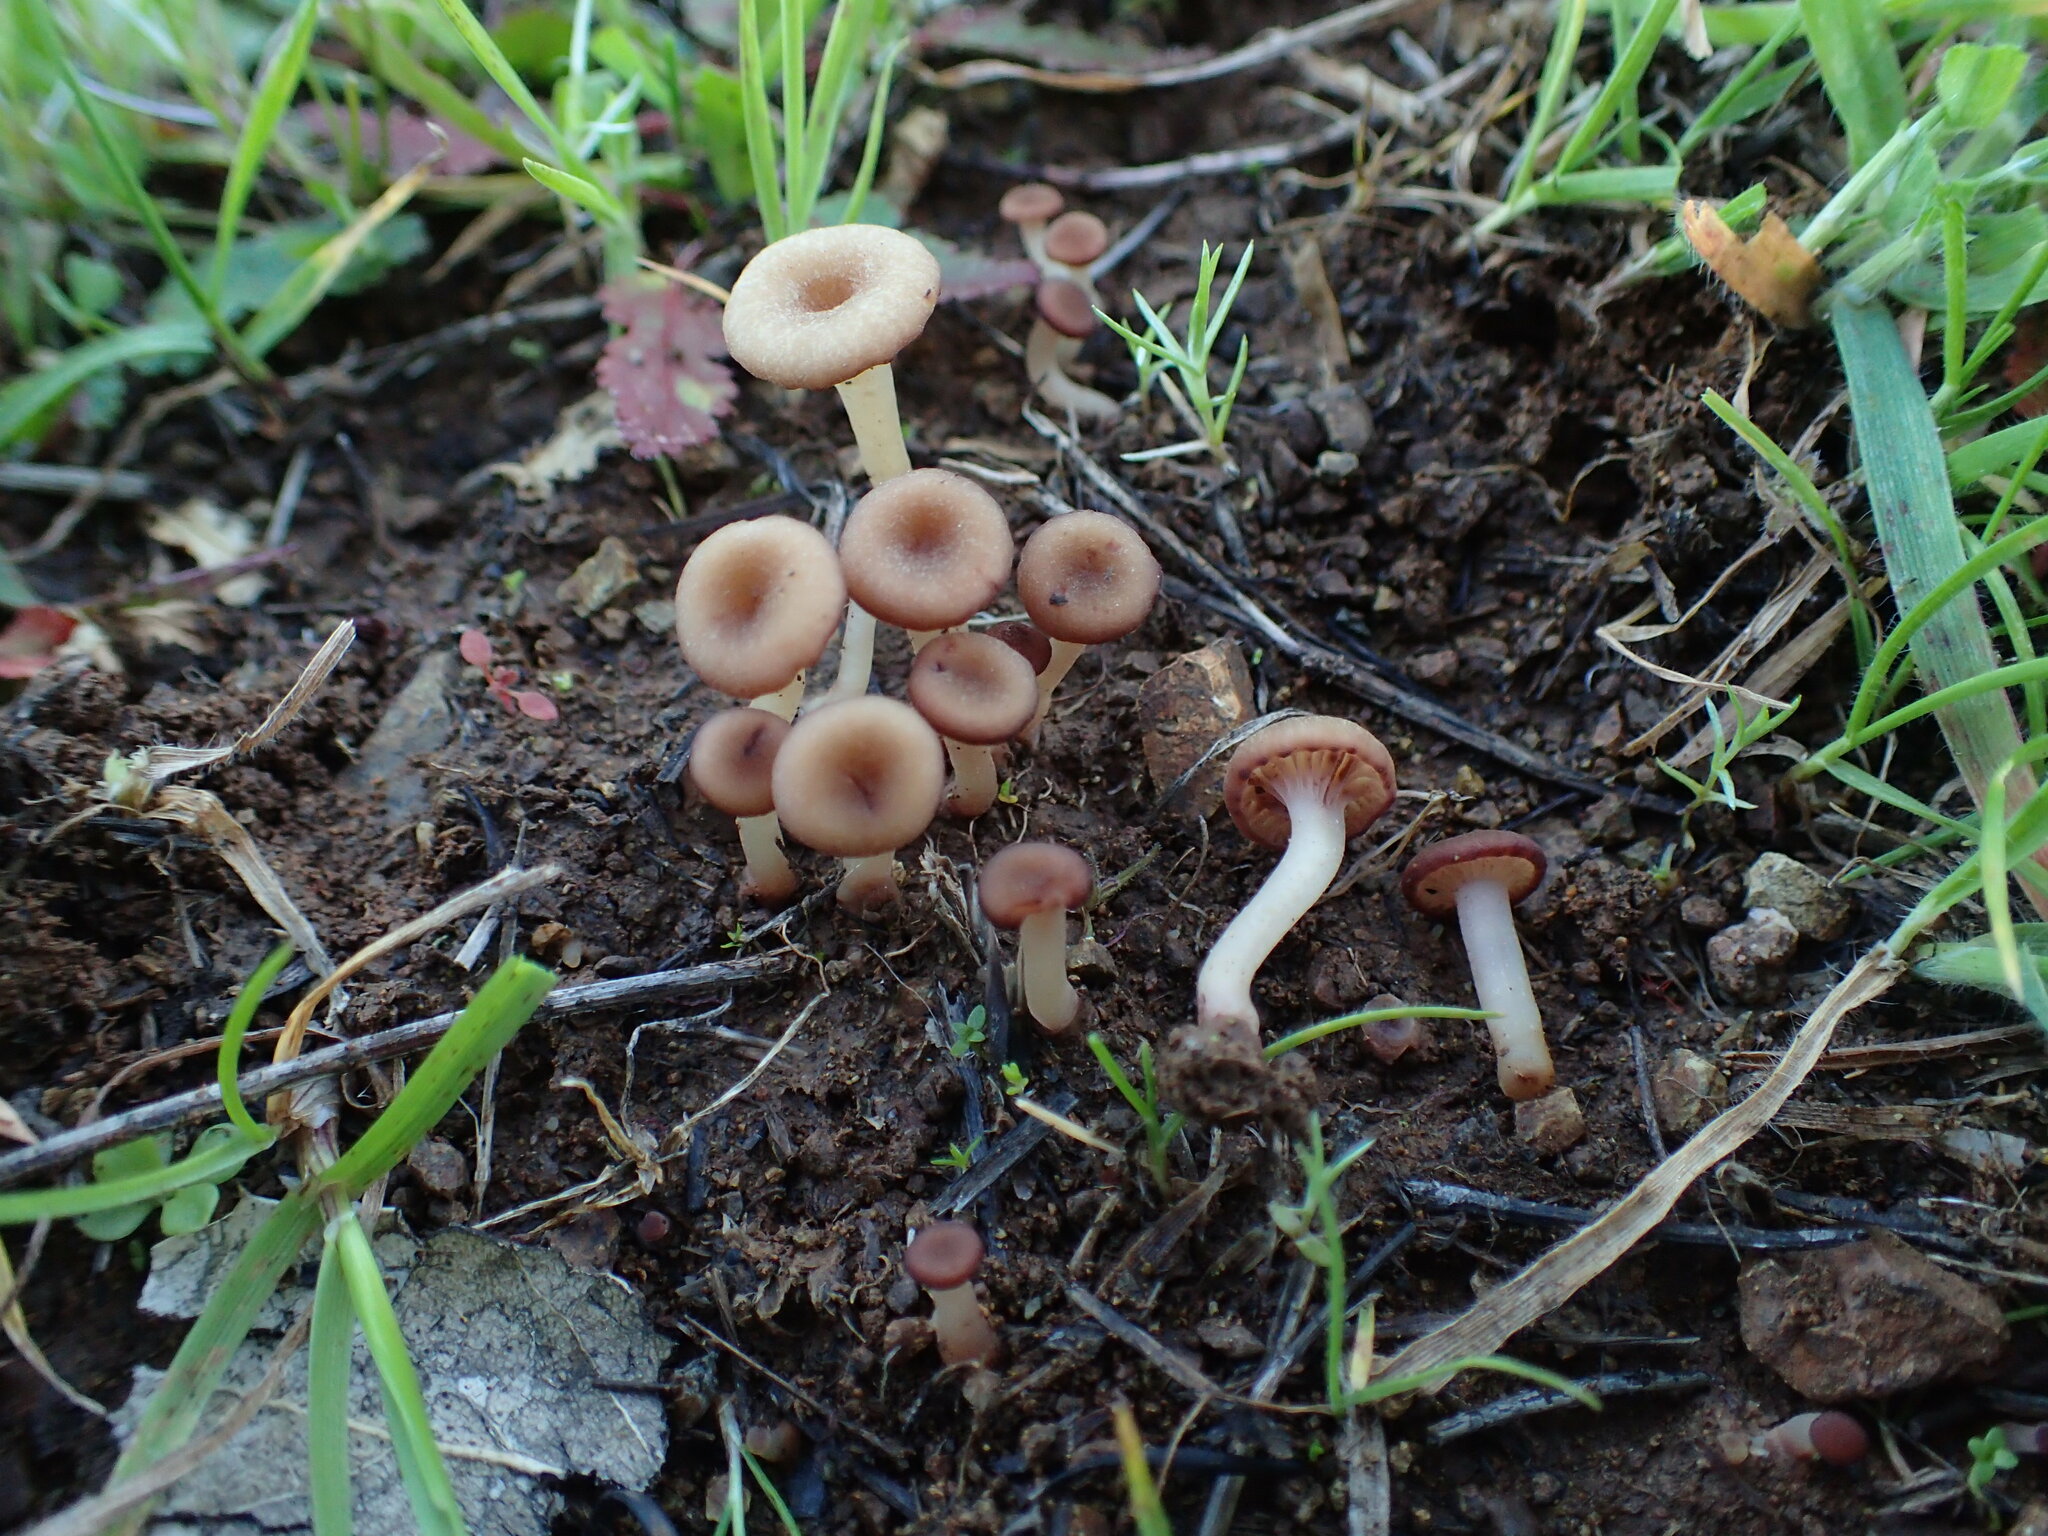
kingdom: Fungi
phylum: Basidiomycota
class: Agaricomycetes
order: Hymenochaetales
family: Rickenellaceae
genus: Contumyces
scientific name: Contumyces rosellus
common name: Rosy navel
